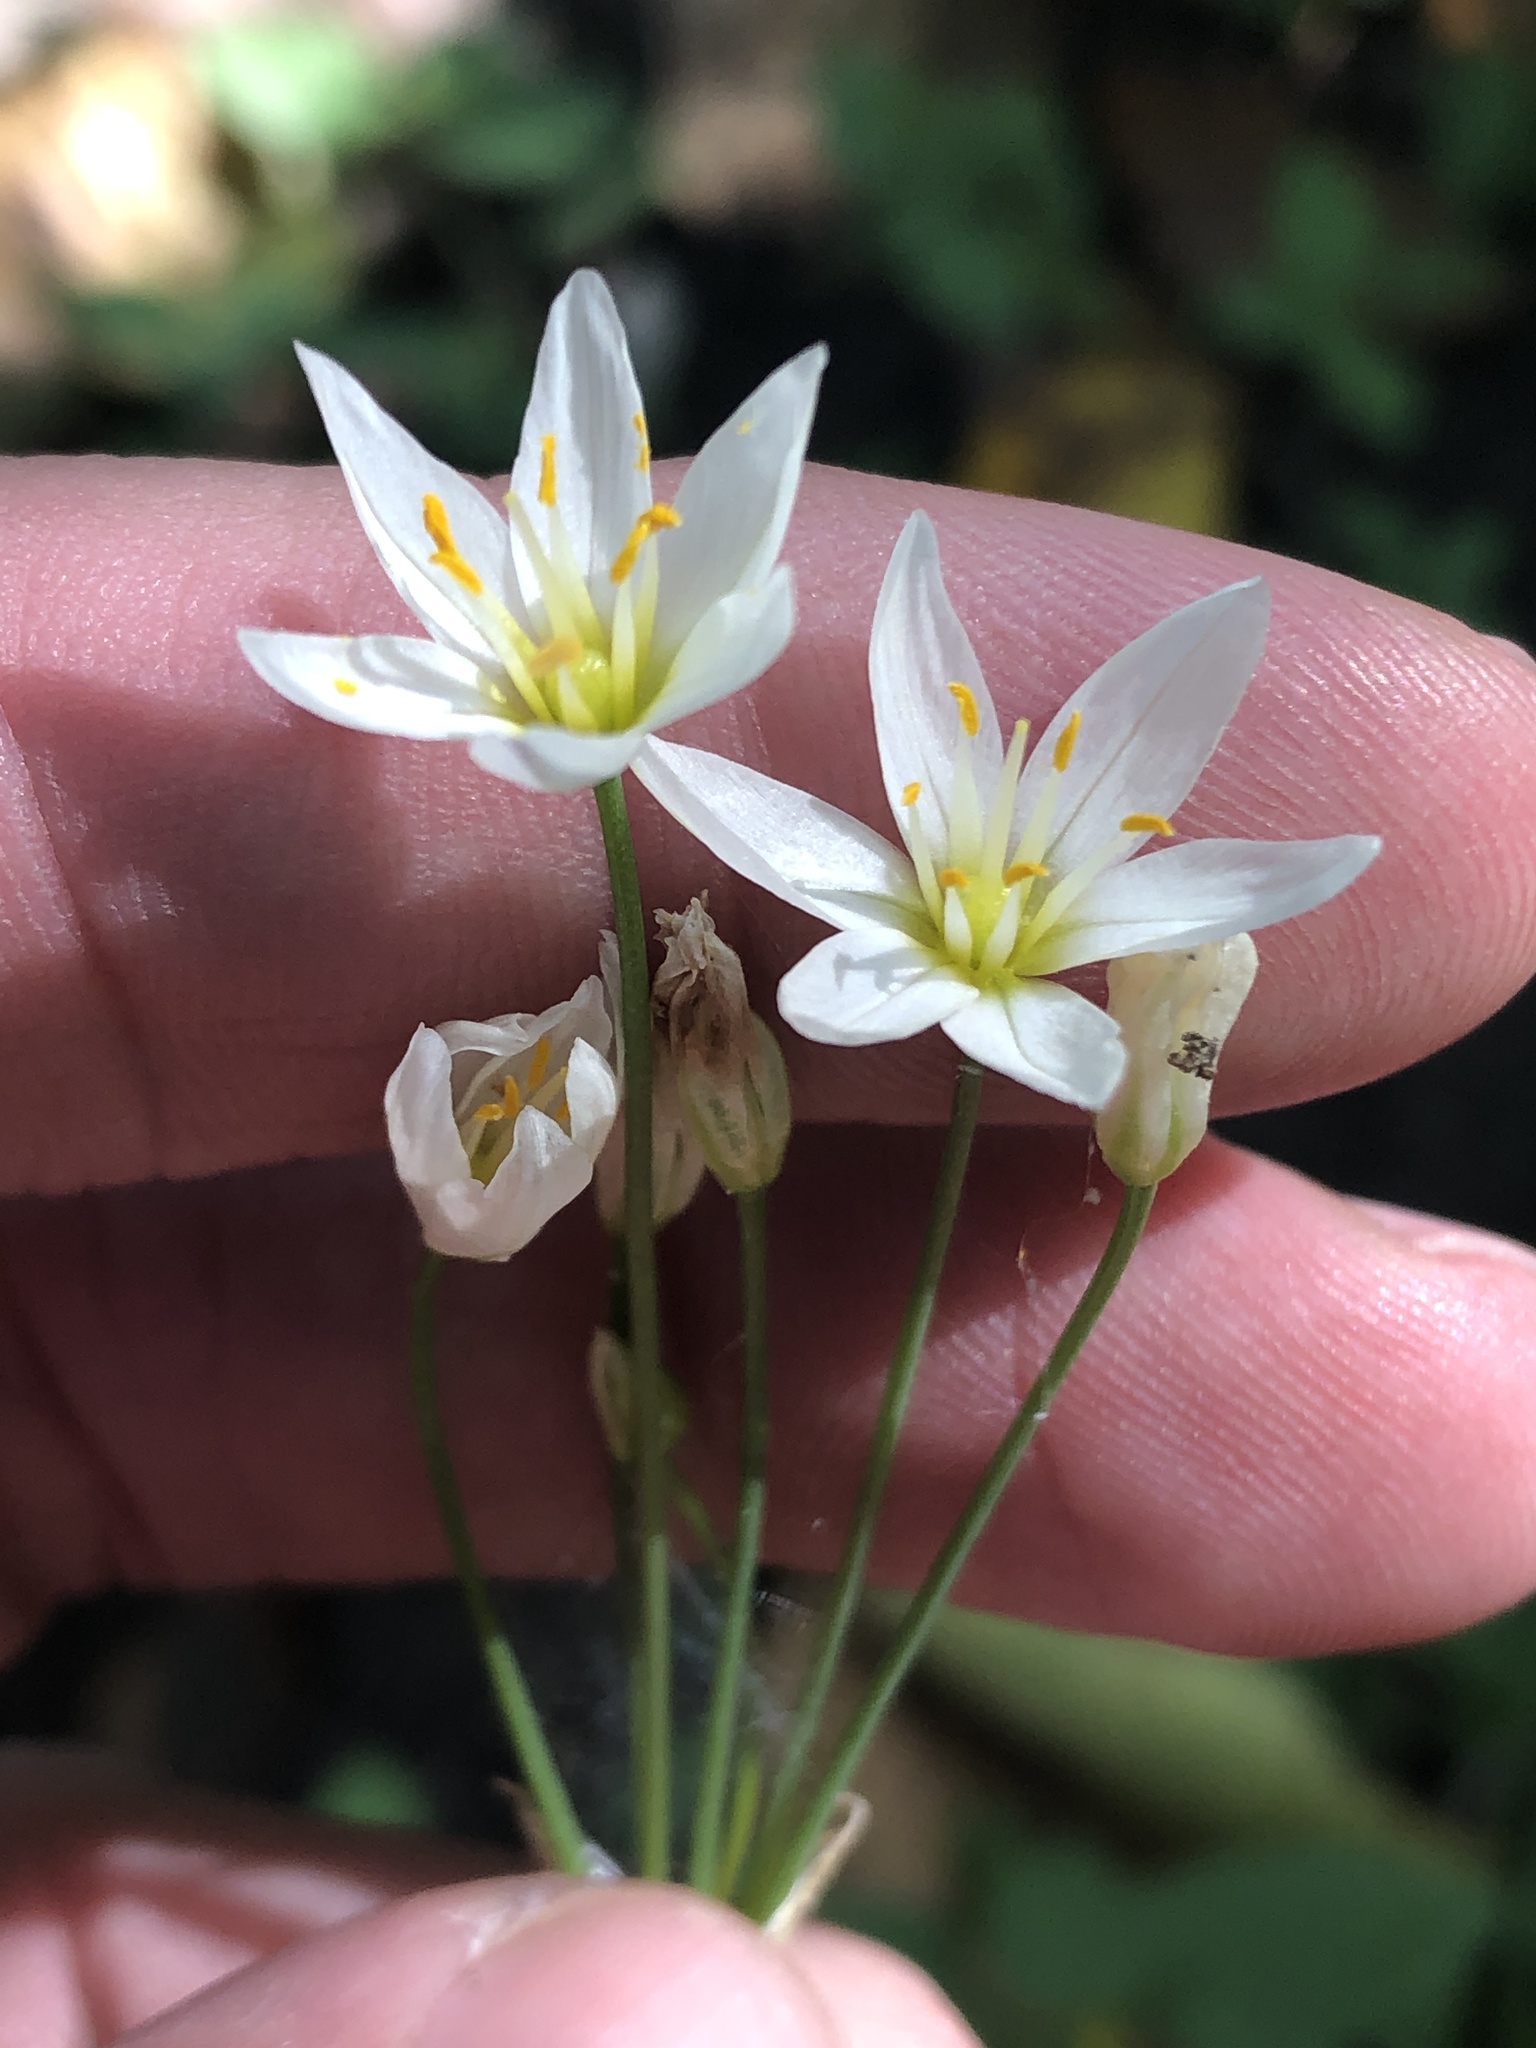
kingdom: Plantae
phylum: Tracheophyta
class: Liliopsida
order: Asparagales
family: Amaryllidaceae
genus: Nothoscordum
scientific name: Nothoscordum bivalve
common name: Crow-poison
